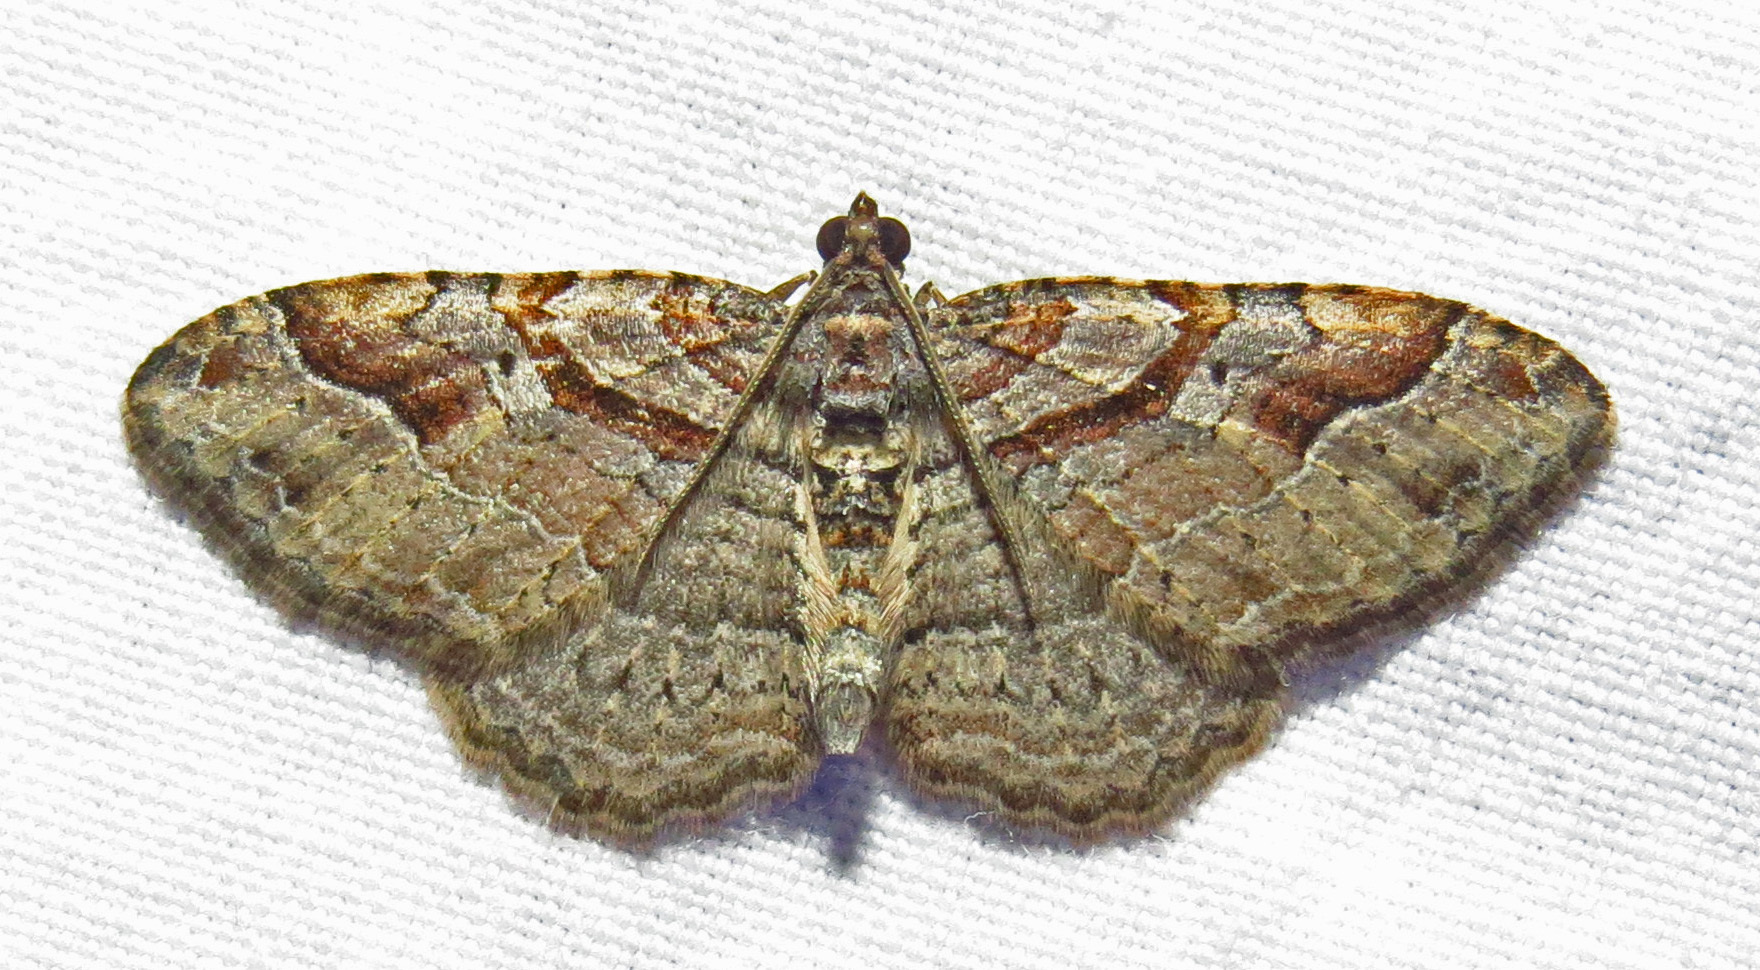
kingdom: Animalia
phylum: Arthropoda
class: Insecta
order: Lepidoptera
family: Geometridae
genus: Costaconvexa
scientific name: Costaconvexa centrostrigaria
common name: Bent-line carpet
